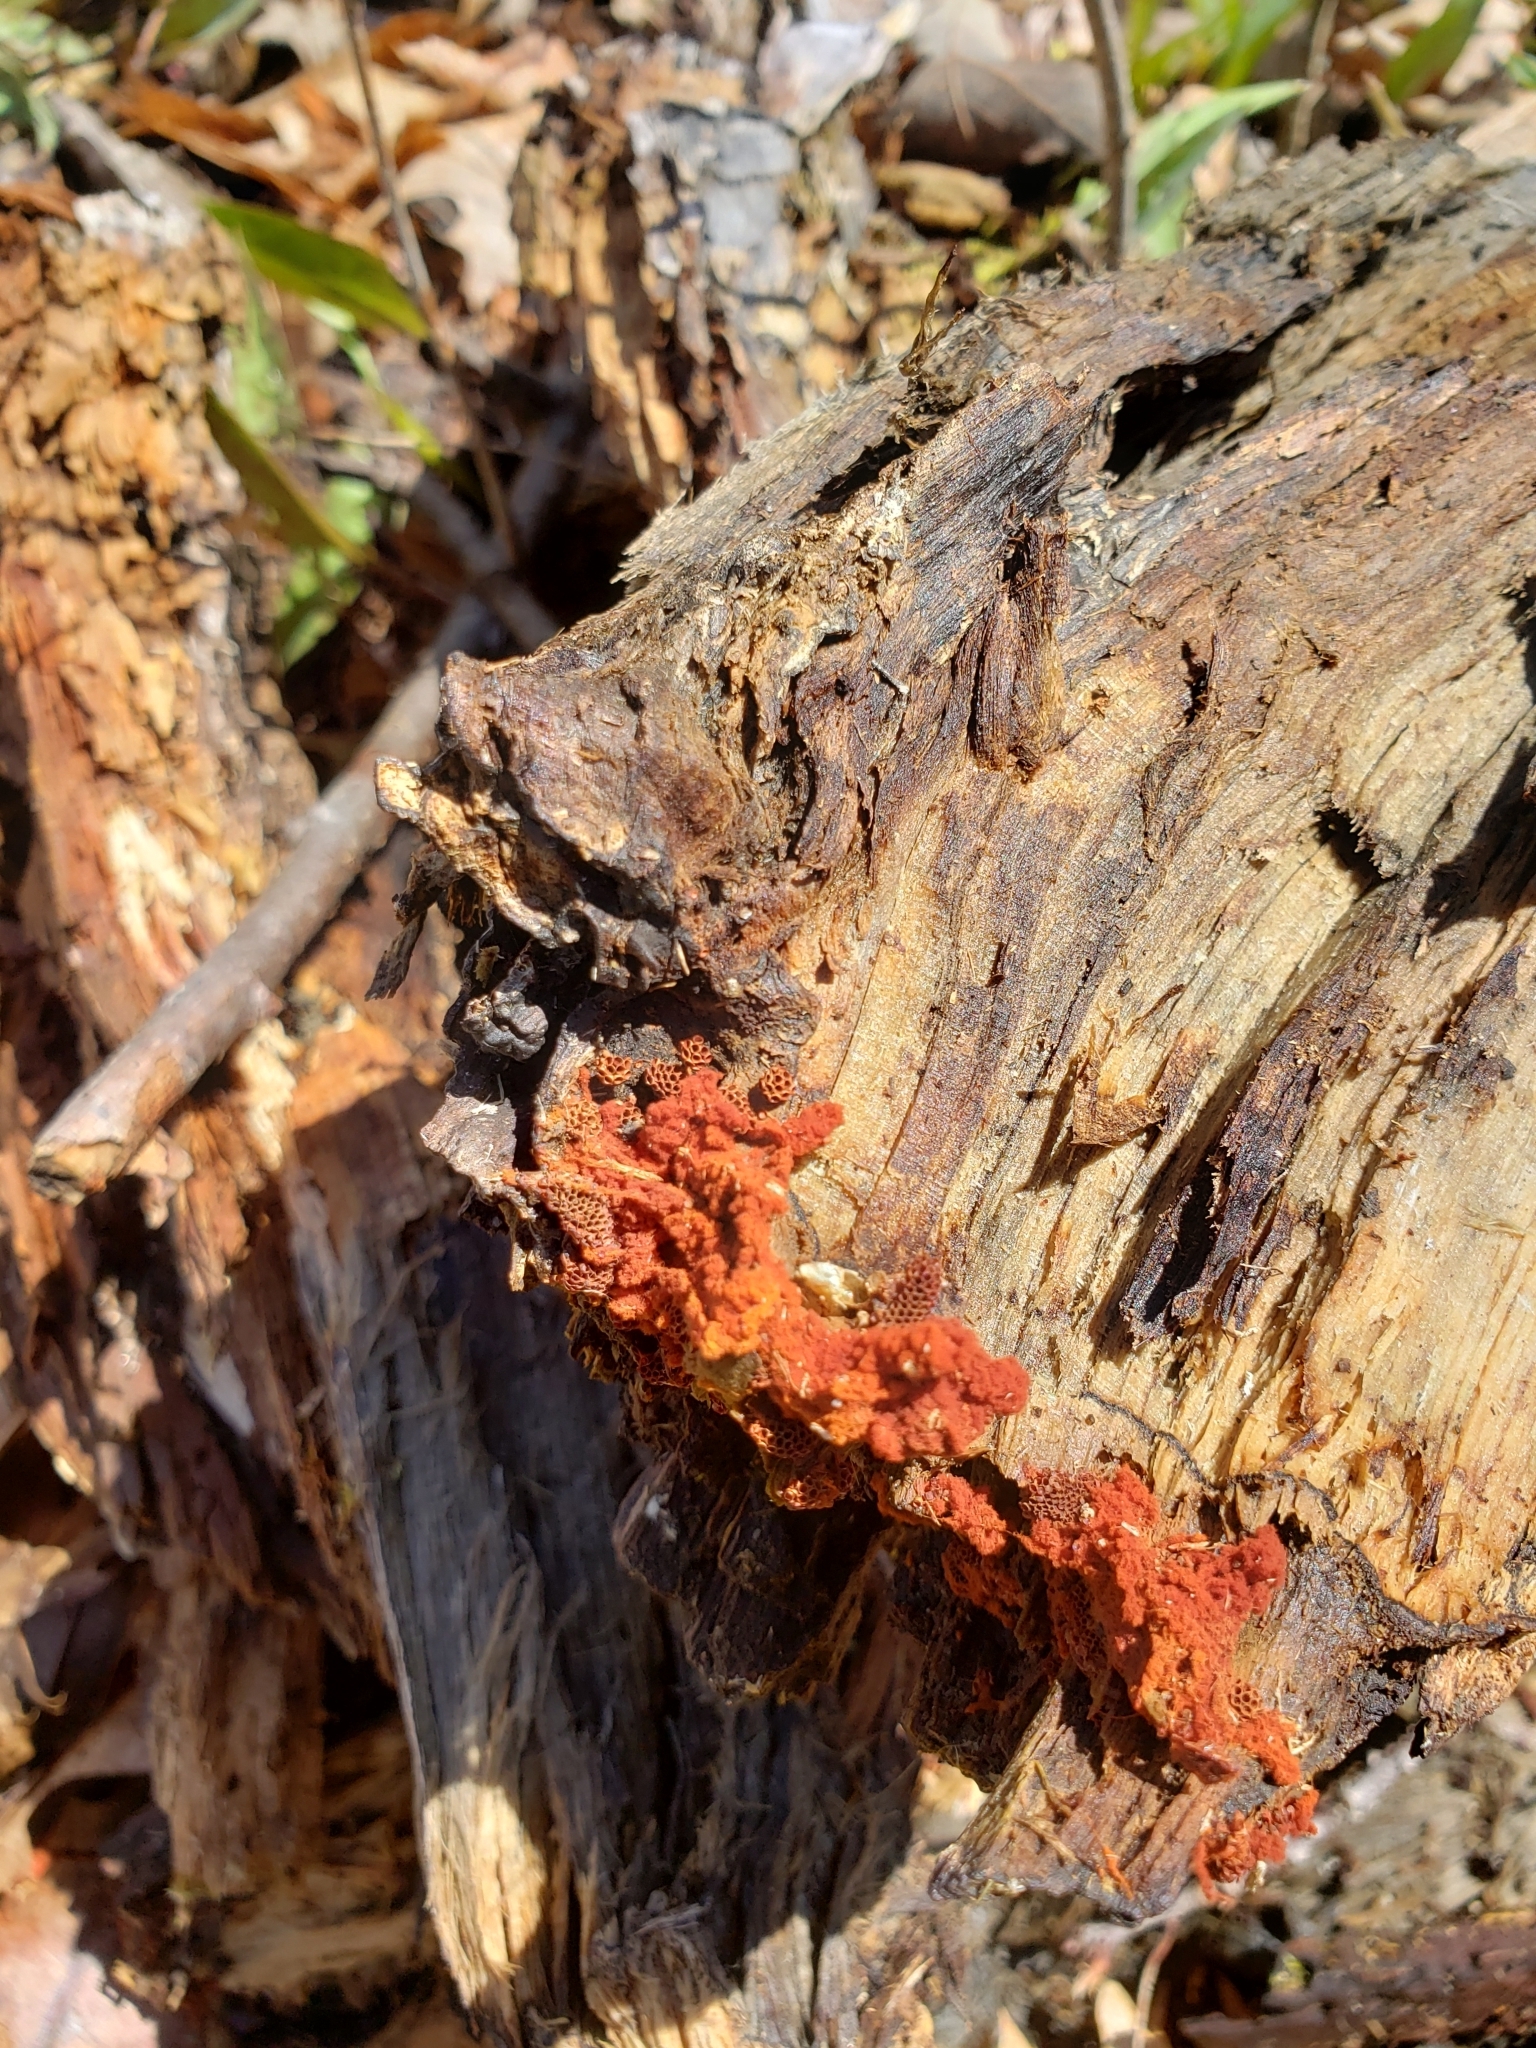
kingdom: Protozoa
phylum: Mycetozoa
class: Myxomycetes
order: Trichiales
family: Trichiaceae
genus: Metatrichia
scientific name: Metatrichia vesparia
